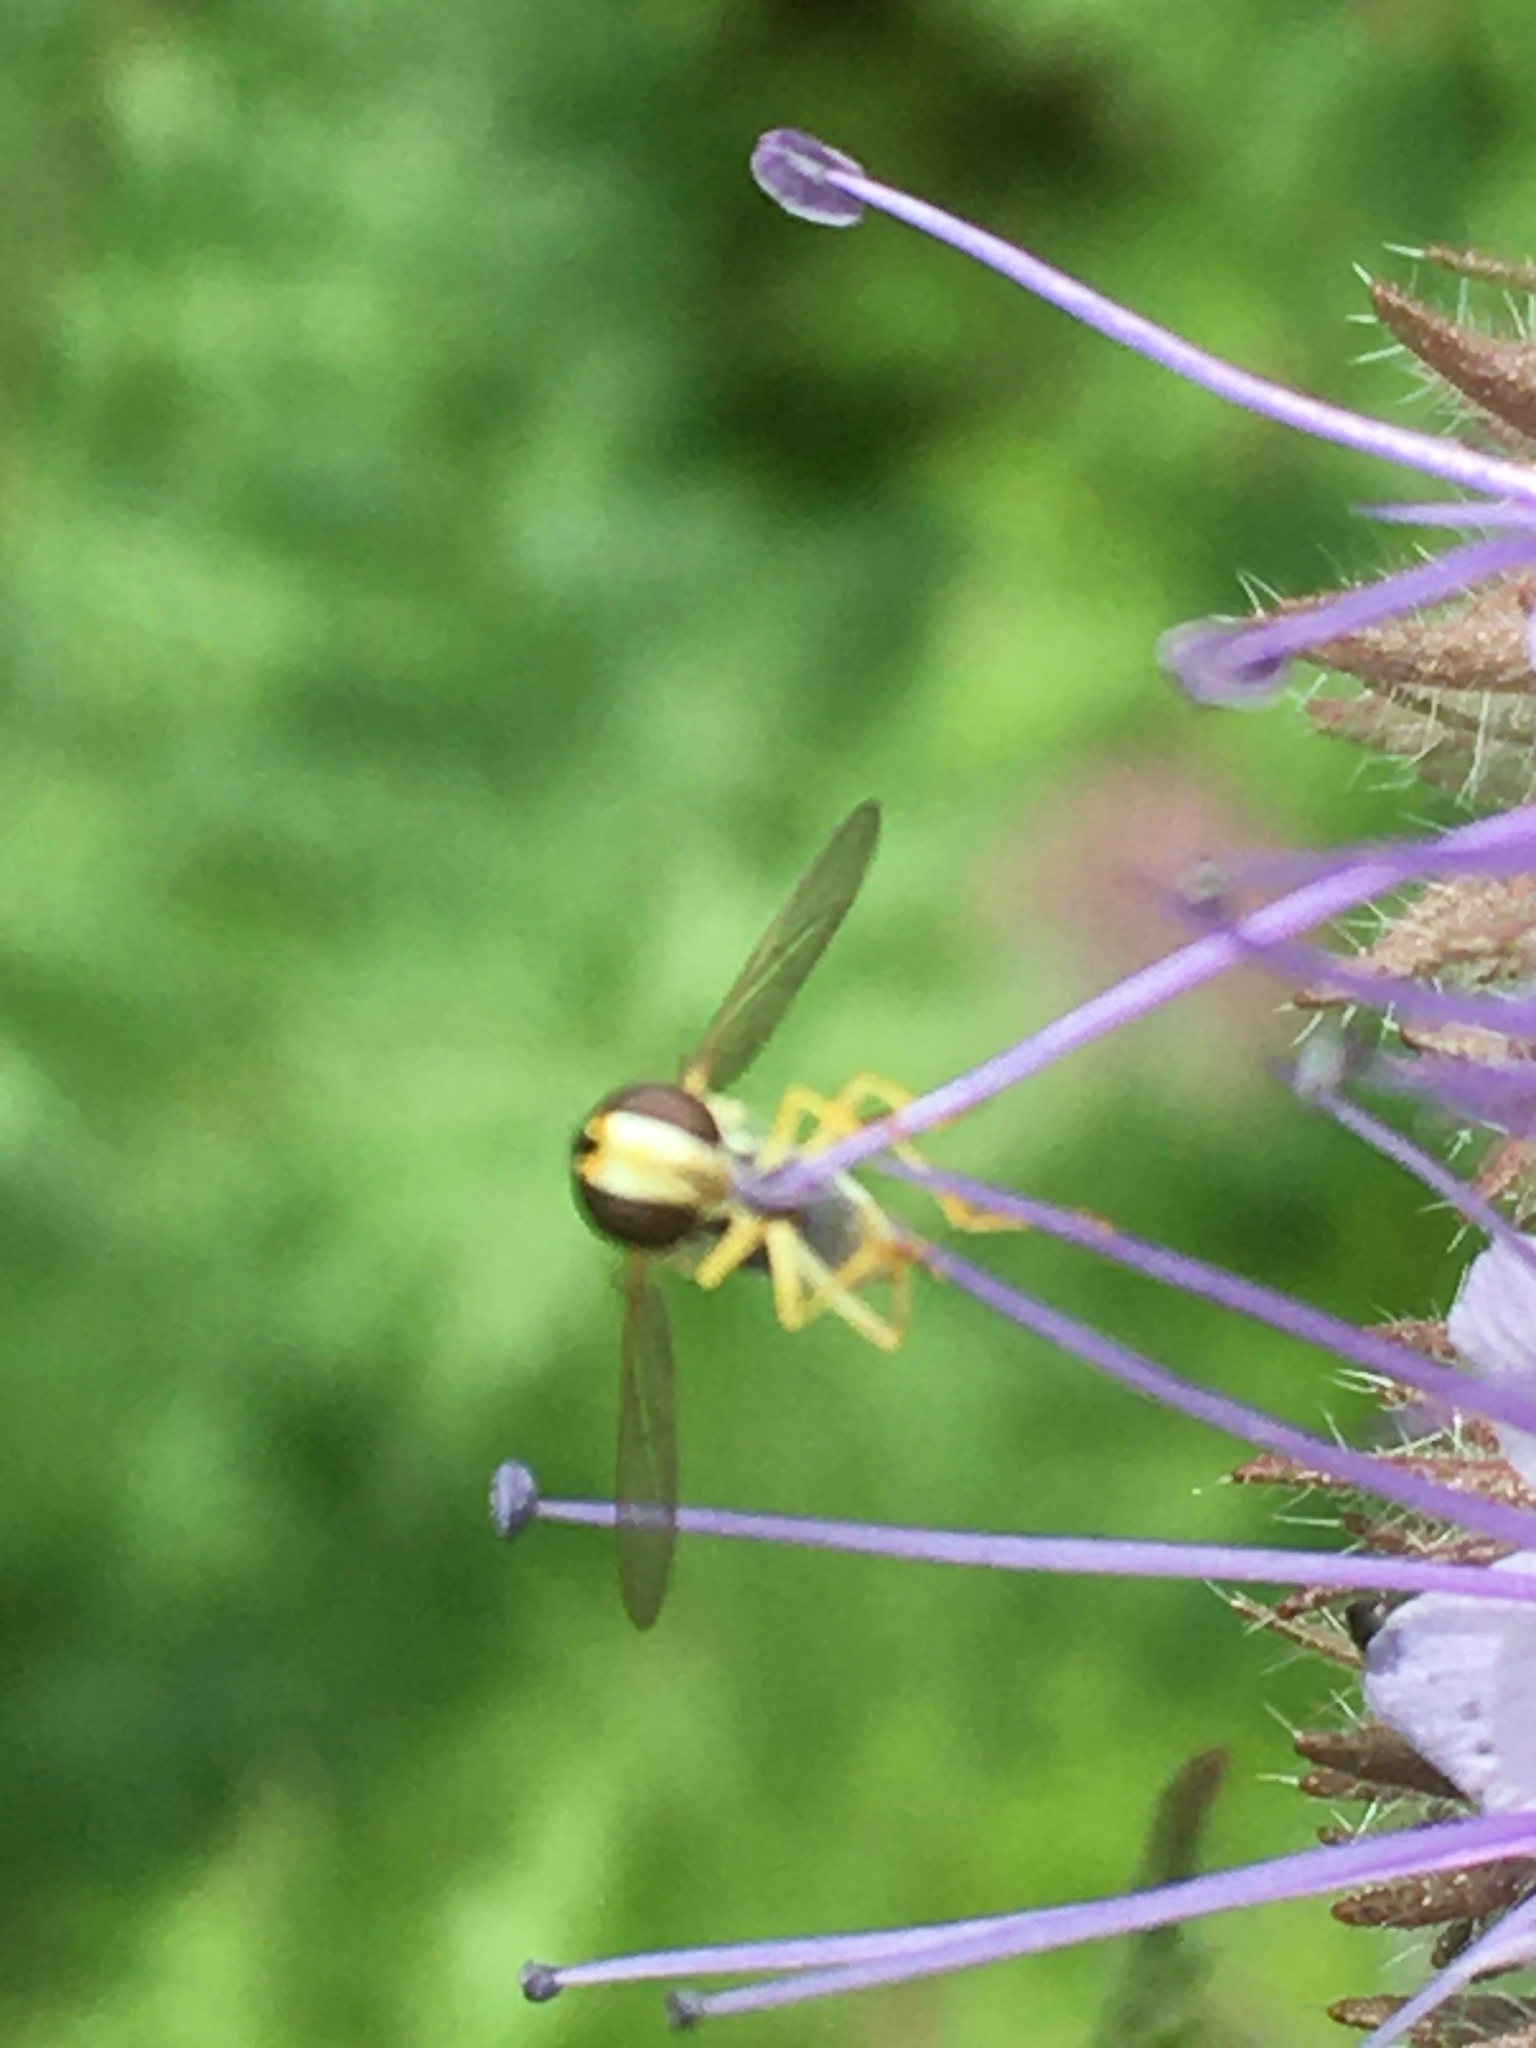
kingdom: Animalia
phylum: Arthropoda
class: Insecta
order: Diptera
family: Syrphidae
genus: Sphaerophoria
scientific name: Sphaerophoria
